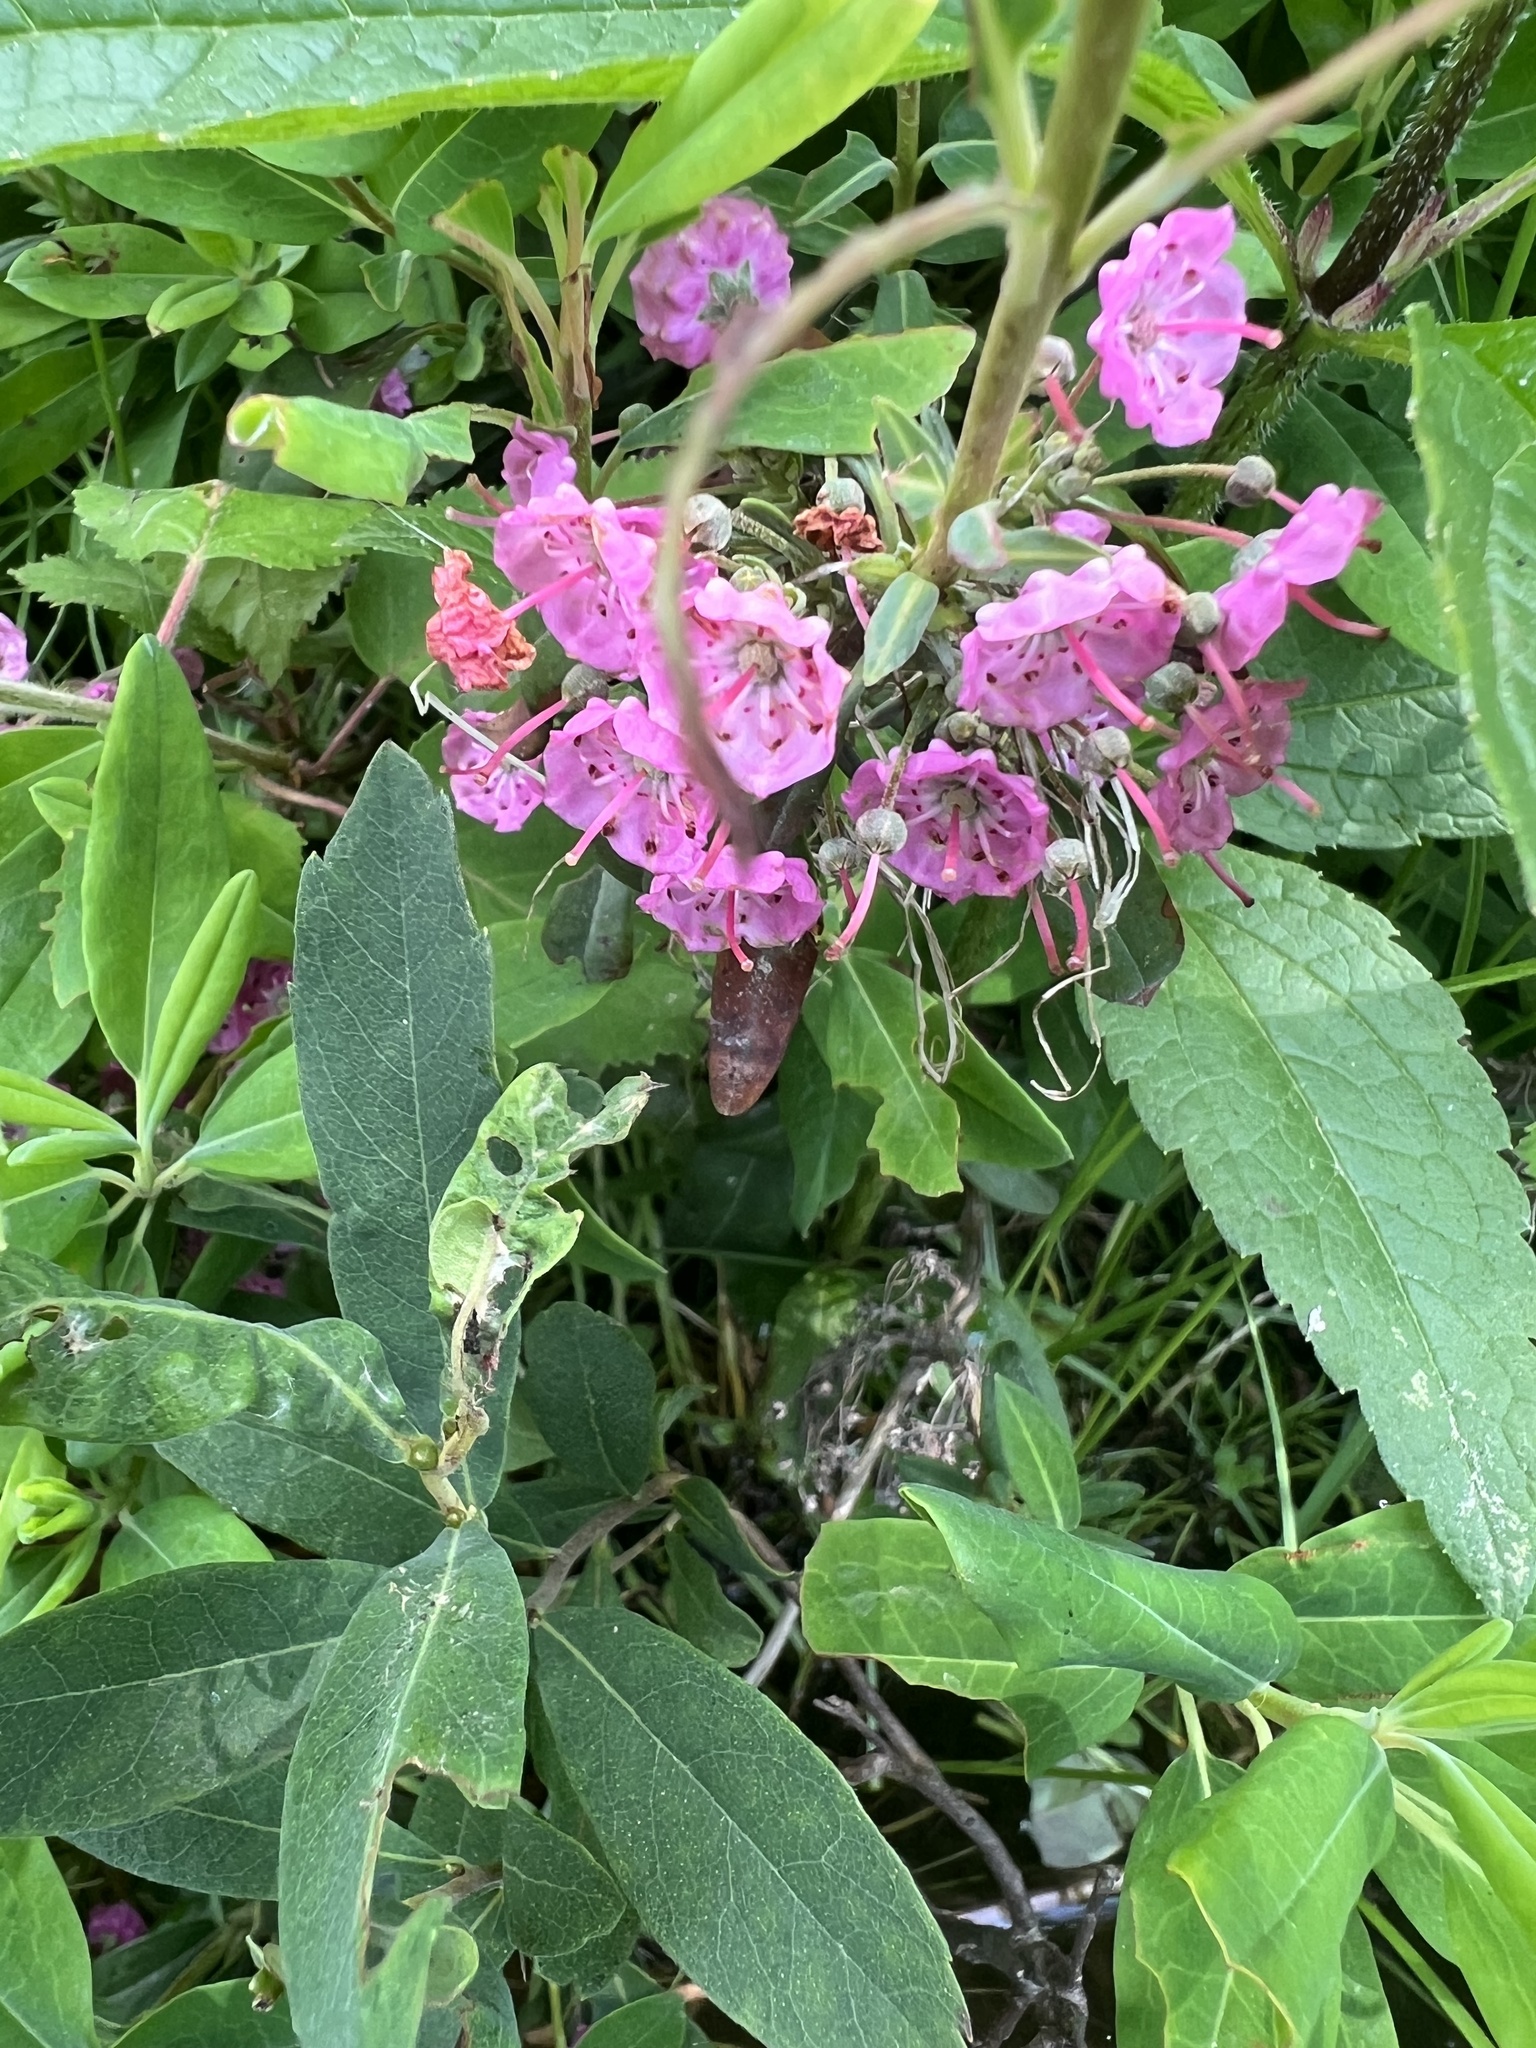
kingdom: Plantae
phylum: Tracheophyta
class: Magnoliopsida
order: Ericales
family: Ericaceae
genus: Kalmia
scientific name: Kalmia angustifolia
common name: Sheep-laurel
